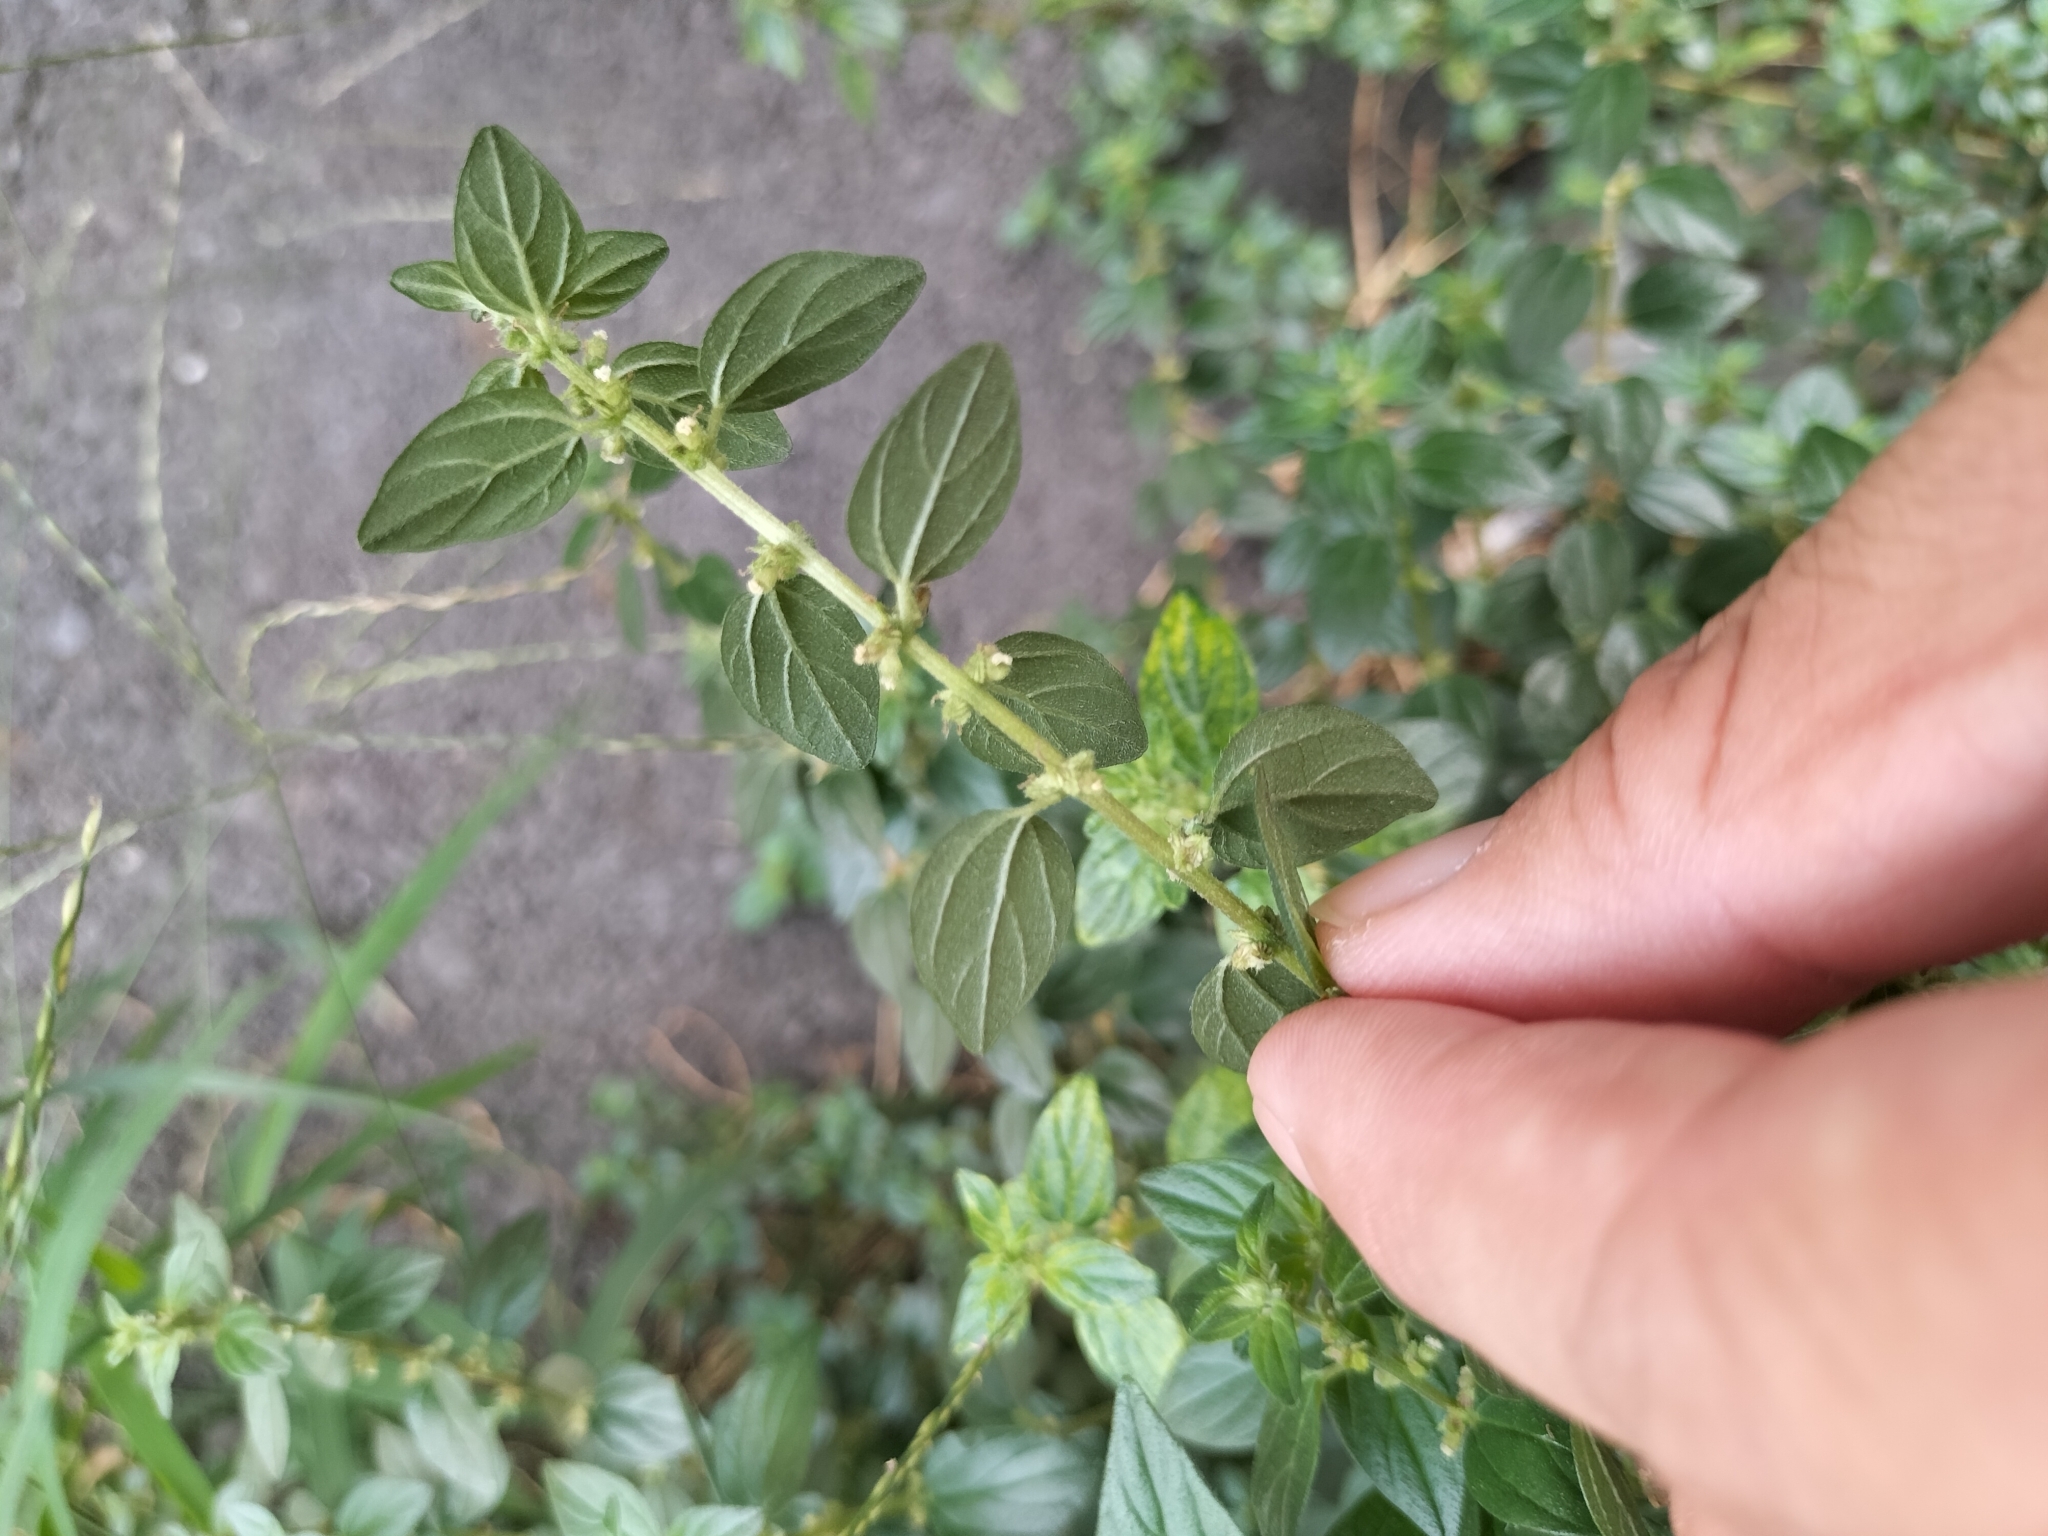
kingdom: Plantae
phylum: Tracheophyta
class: Magnoliopsida
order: Rosales
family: Urticaceae
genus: Pouzolzia
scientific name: Pouzolzia zeylanica
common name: Graceful pouzolzsbush
